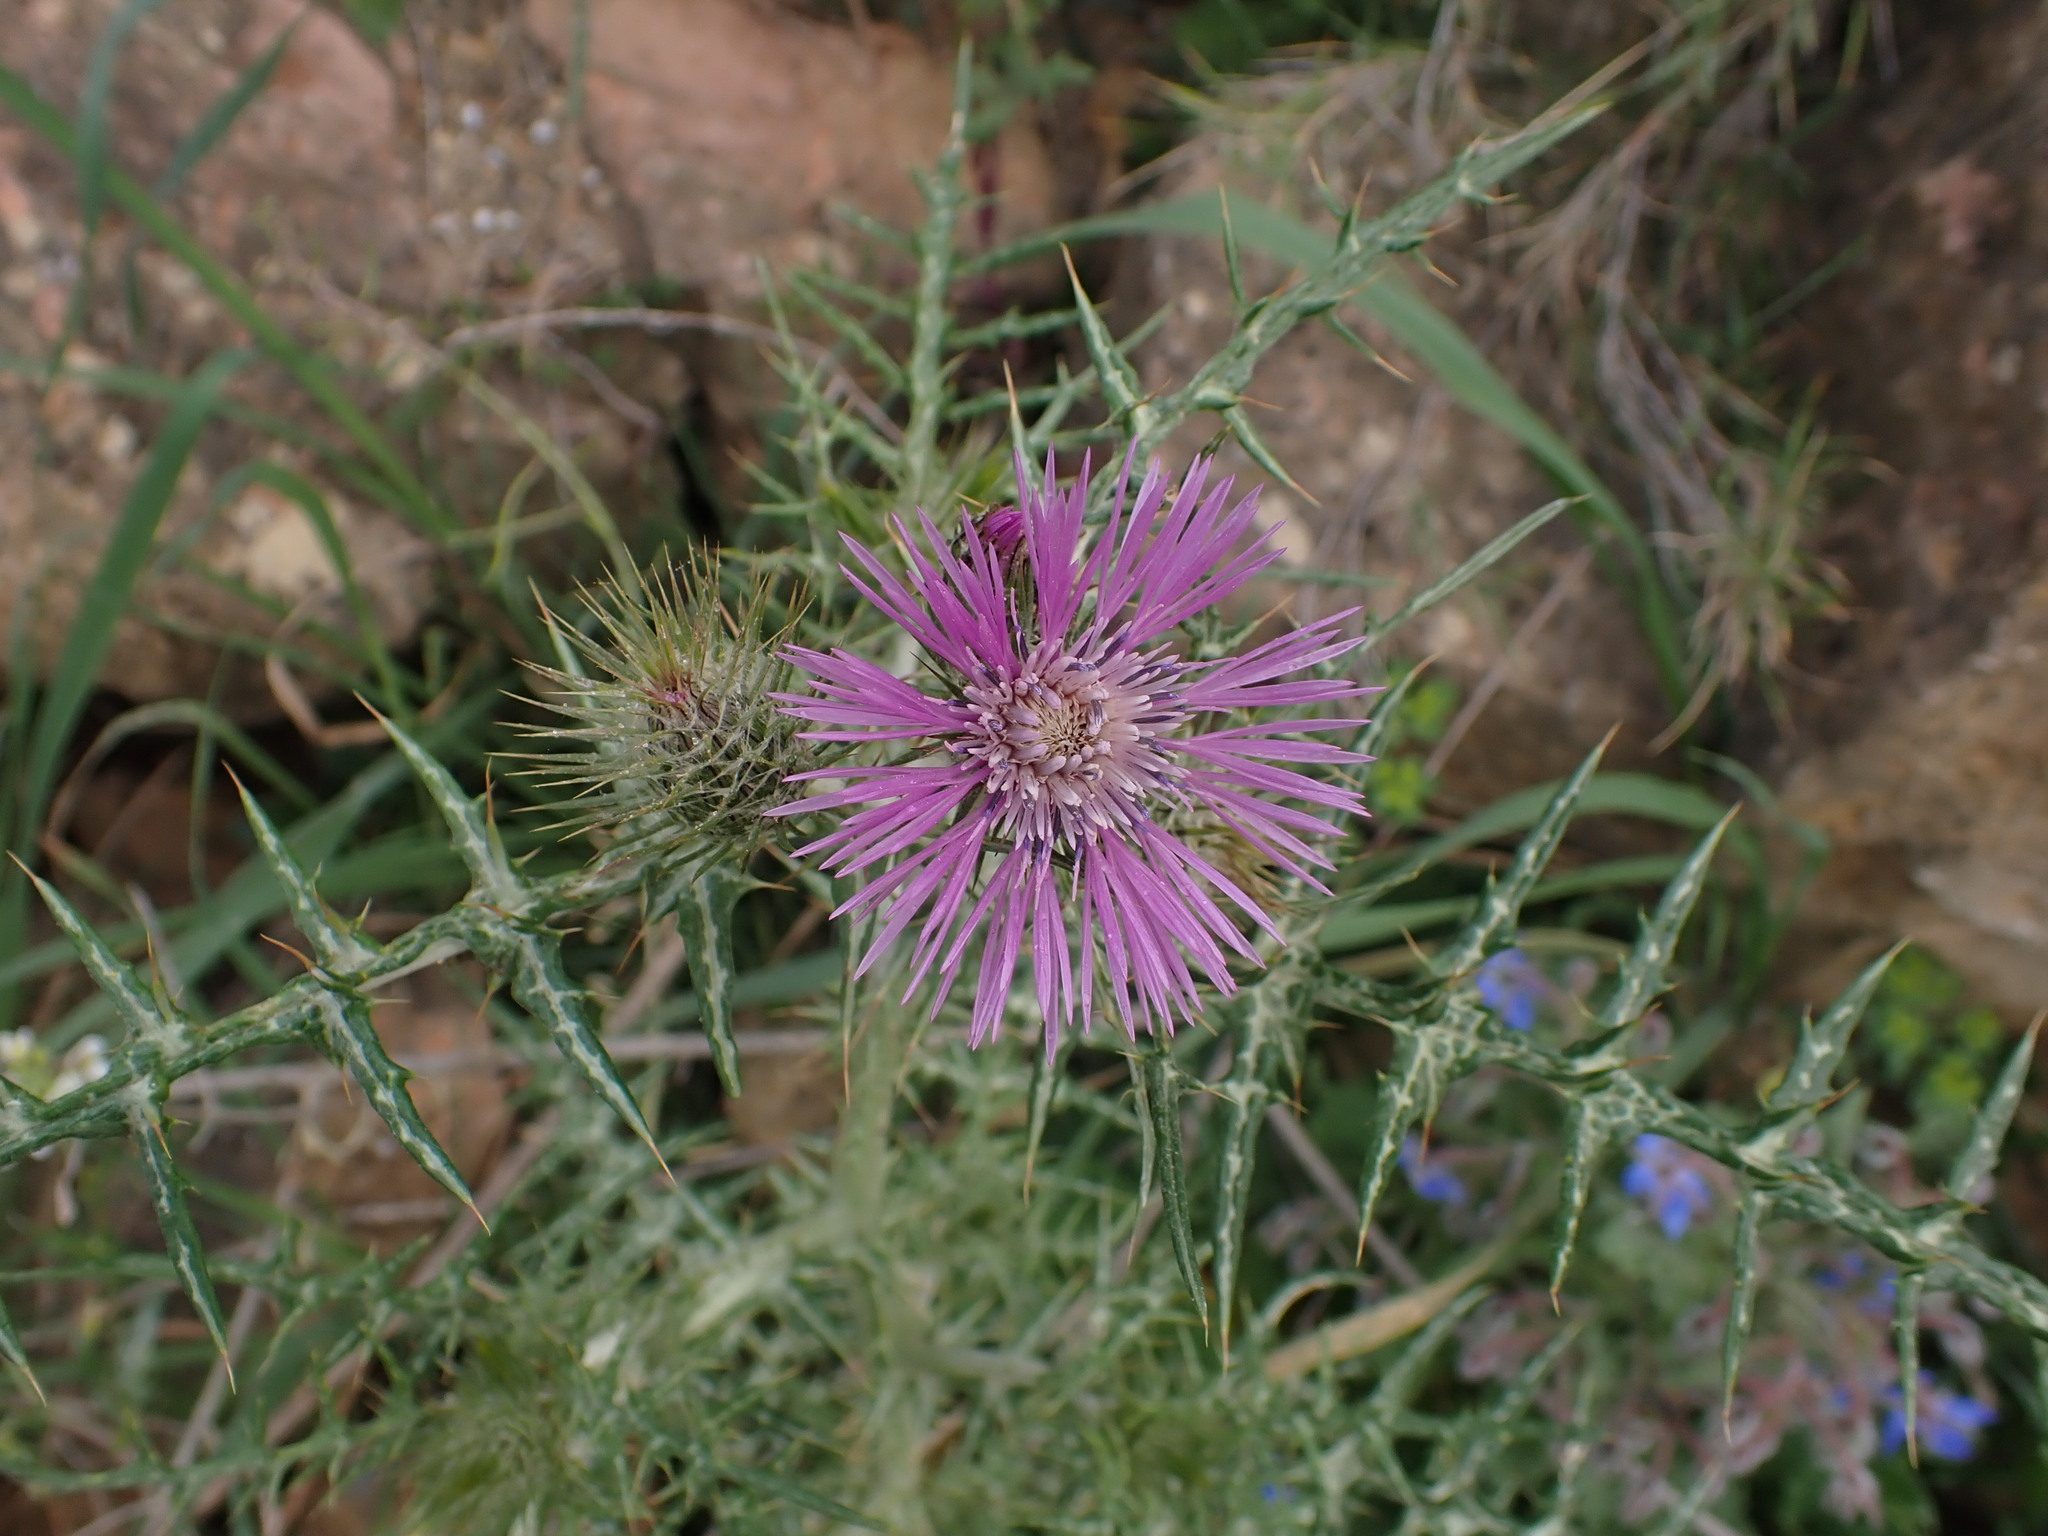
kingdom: Plantae
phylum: Tracheophyta
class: Magnoliopsida
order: Asterales
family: Asteraceae
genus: Galactites
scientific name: Galactites tomentosa
